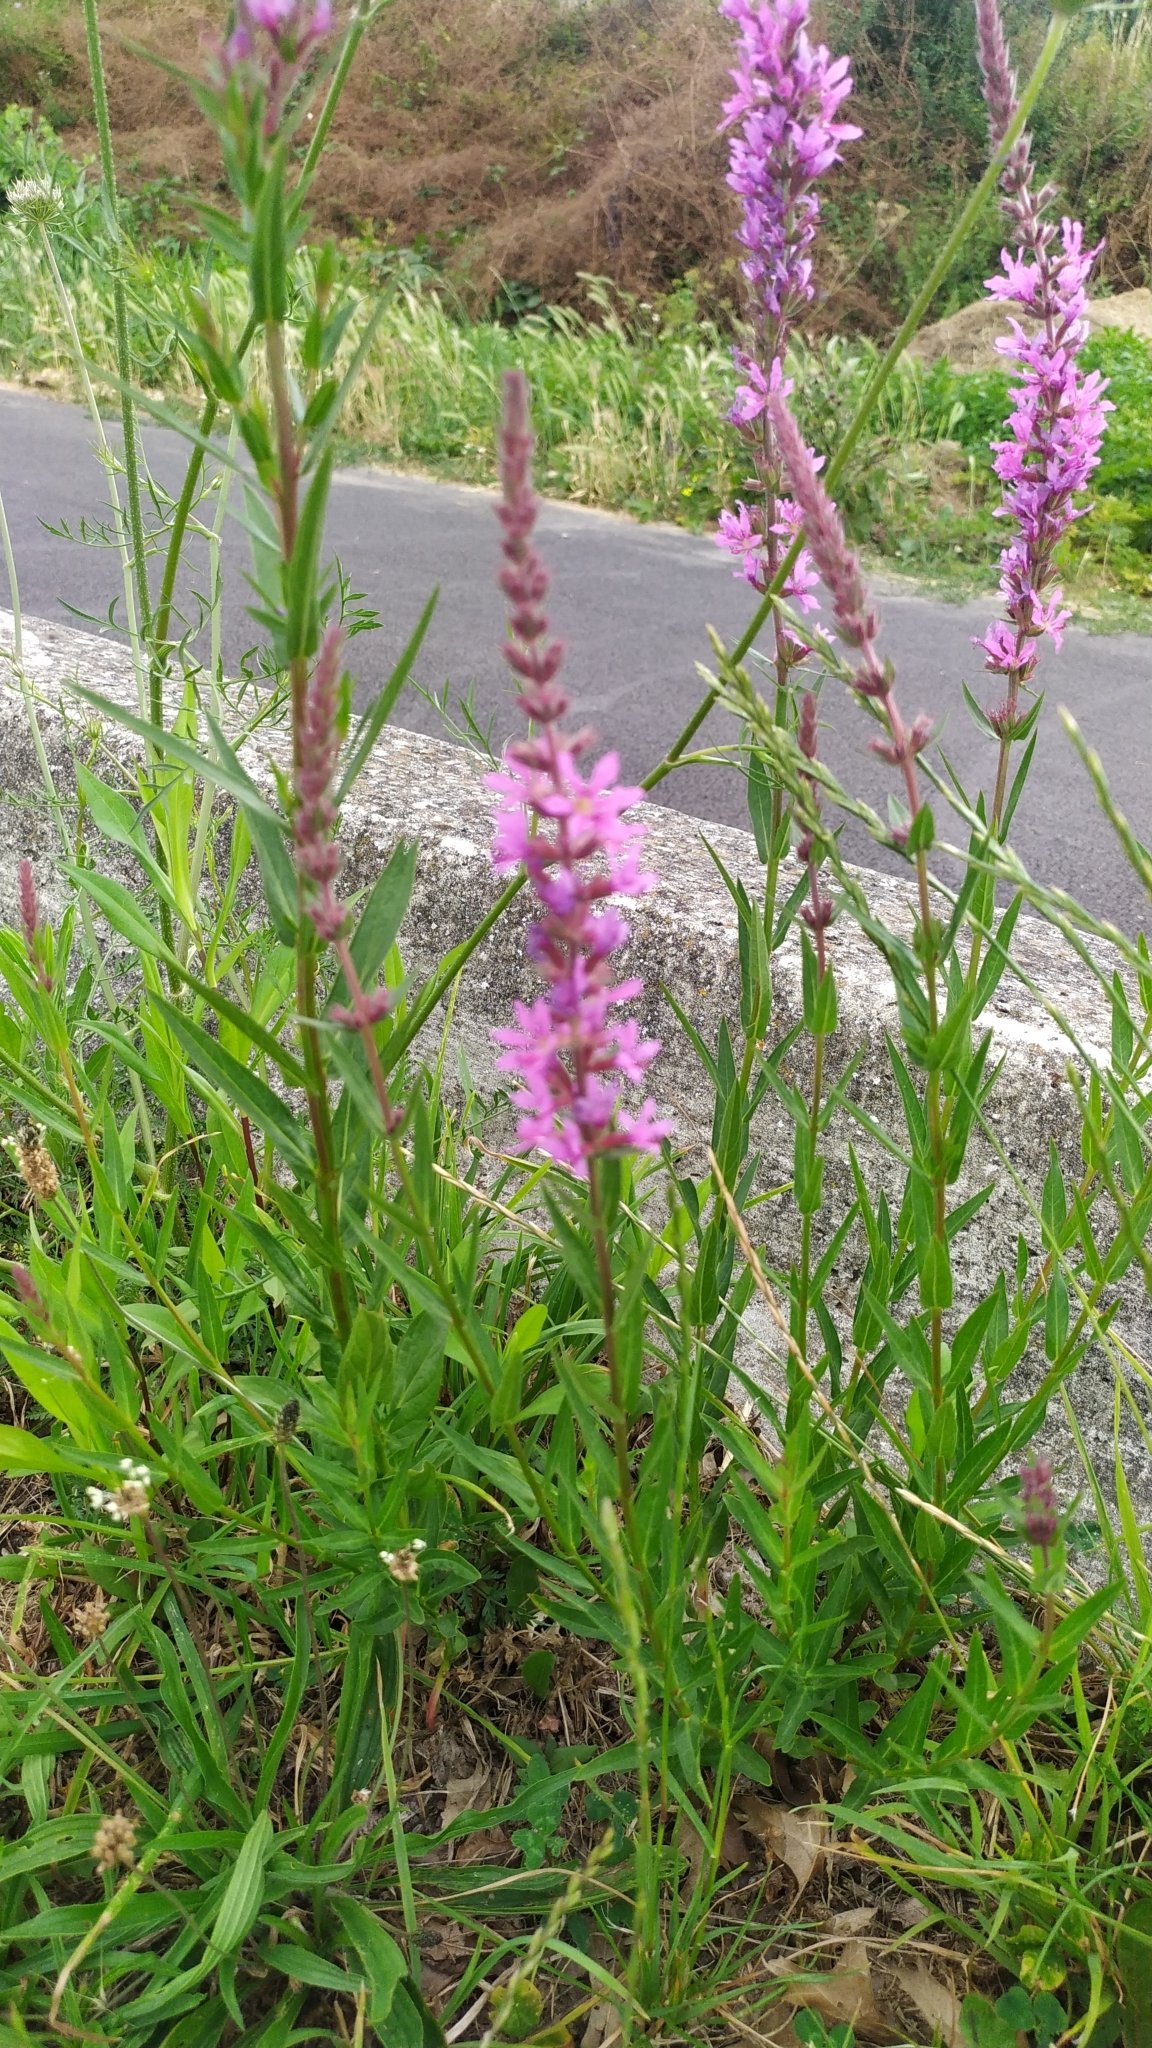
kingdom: Plantae
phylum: Tracheophyta
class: Magnoliopsida
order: Myrtales
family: Lythraceae
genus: Lythrum
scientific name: Lythrum salicaria
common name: Purple loosestrife
